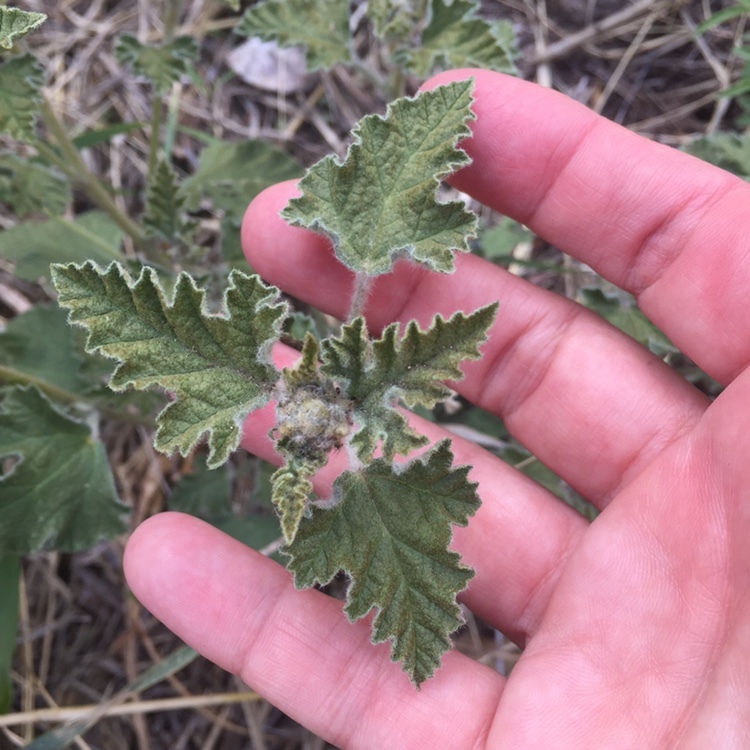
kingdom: Plantae
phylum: Tracheophyta
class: Magnoliopsida
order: Malvales
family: Malvaceae
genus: Sphaeralcea
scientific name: Sphaeralcea cordobensis
